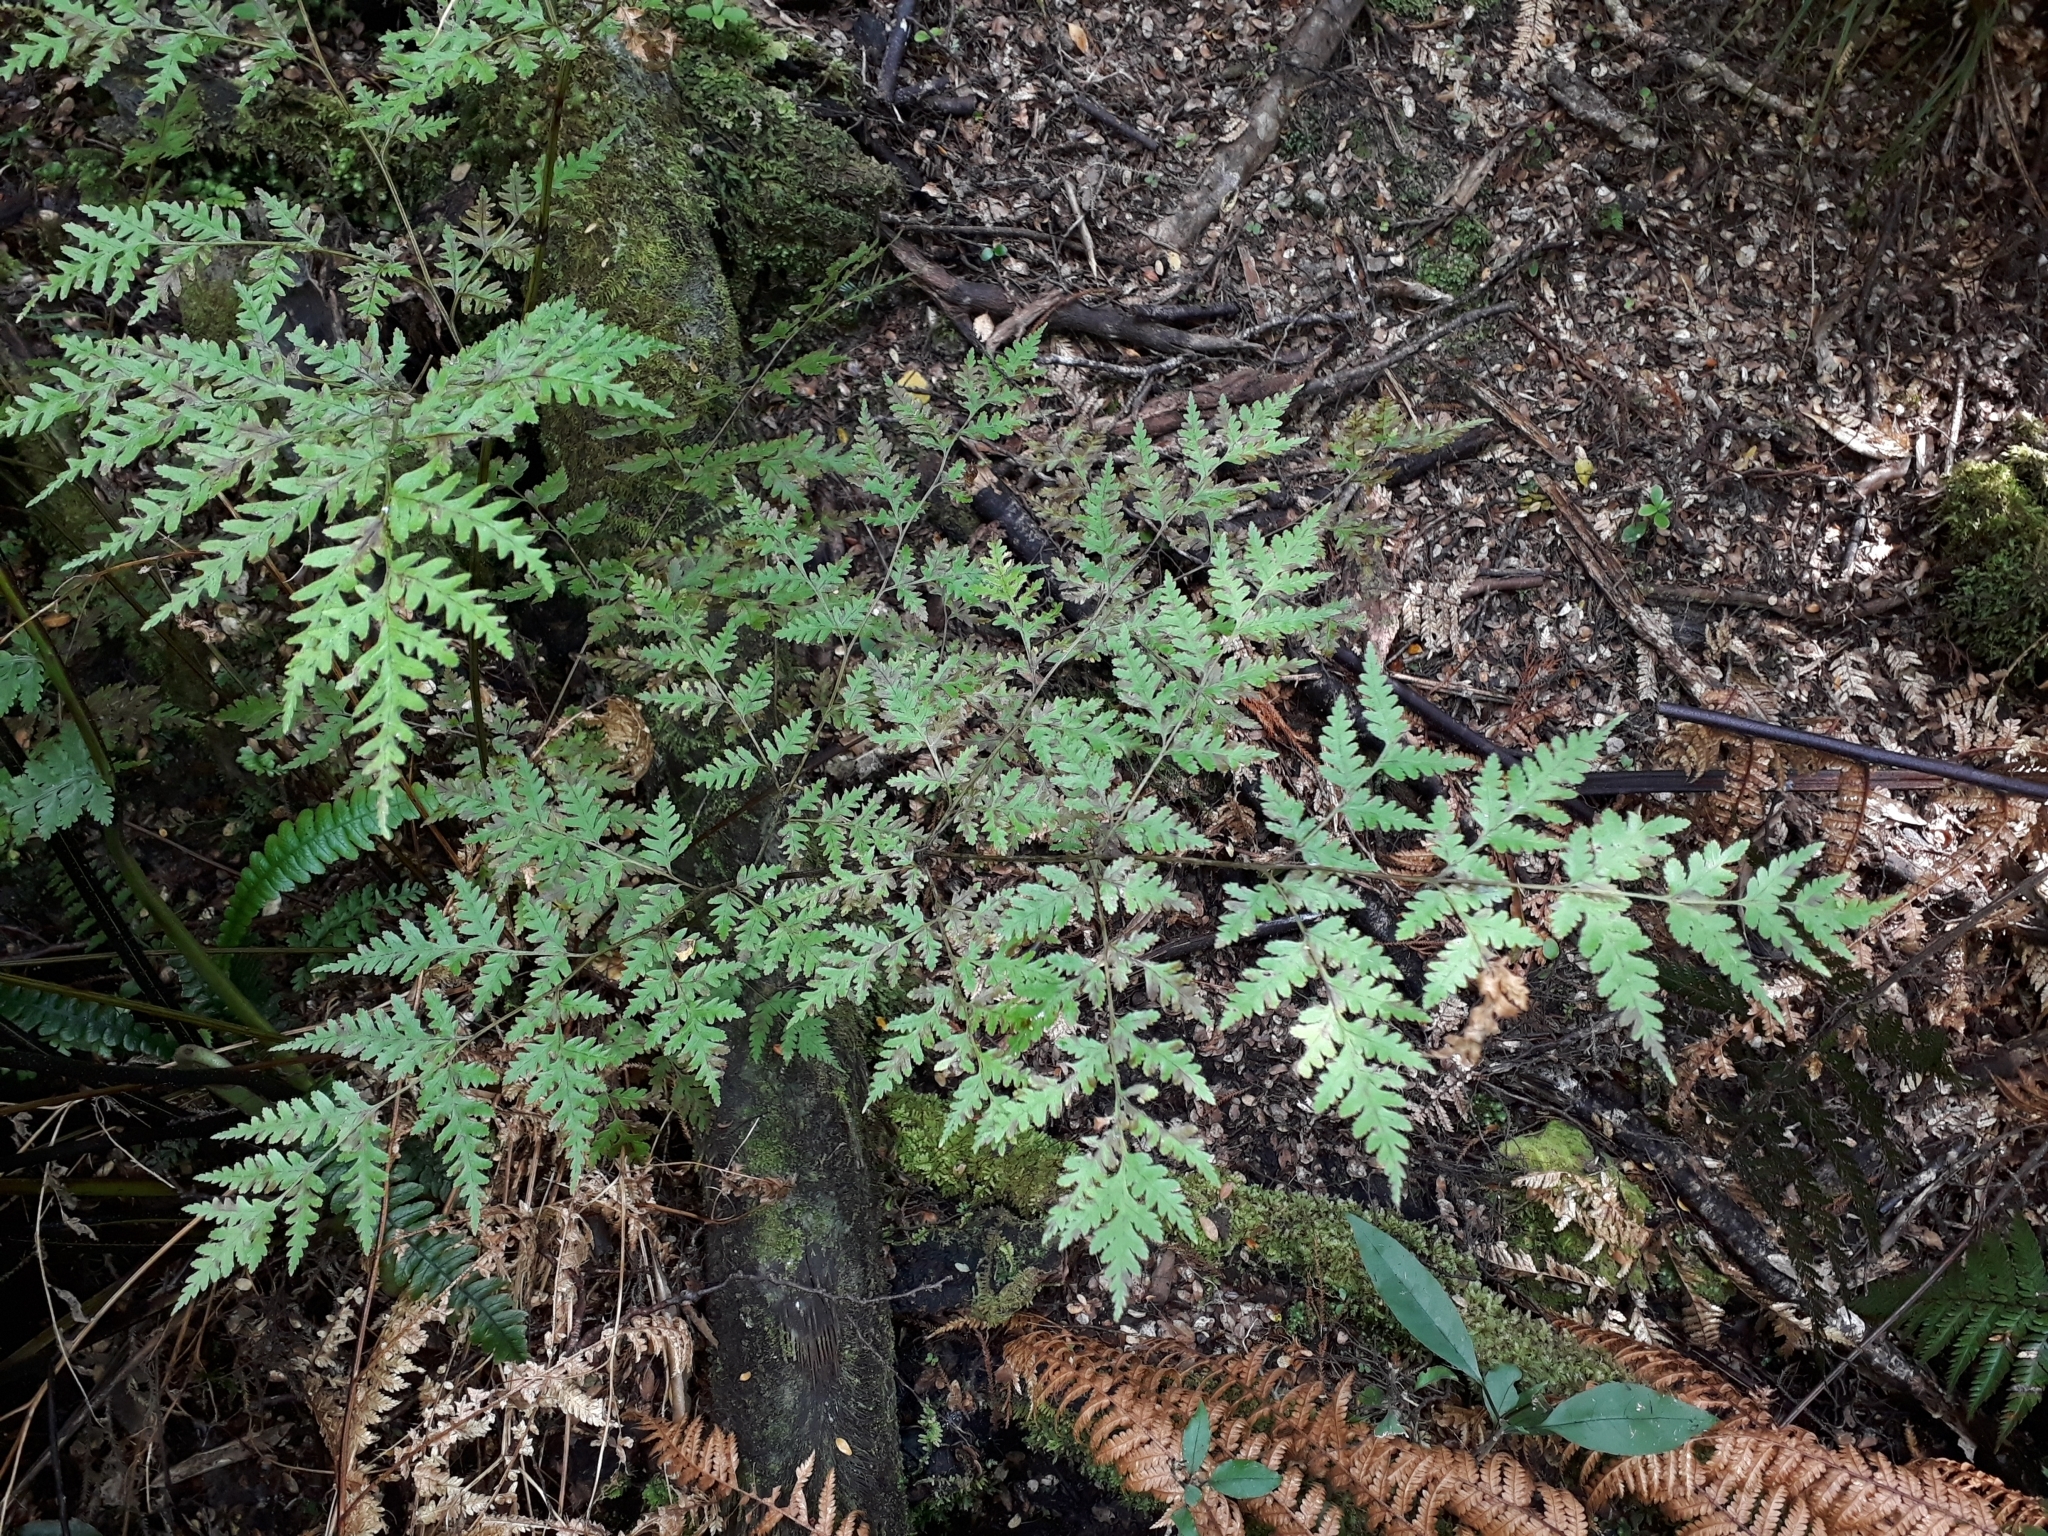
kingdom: Plantae
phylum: Tracheophyta
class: Polypodiopsida
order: Polypodiales
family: Pteridaceae
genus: Pteris
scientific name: Pteris macilenta
